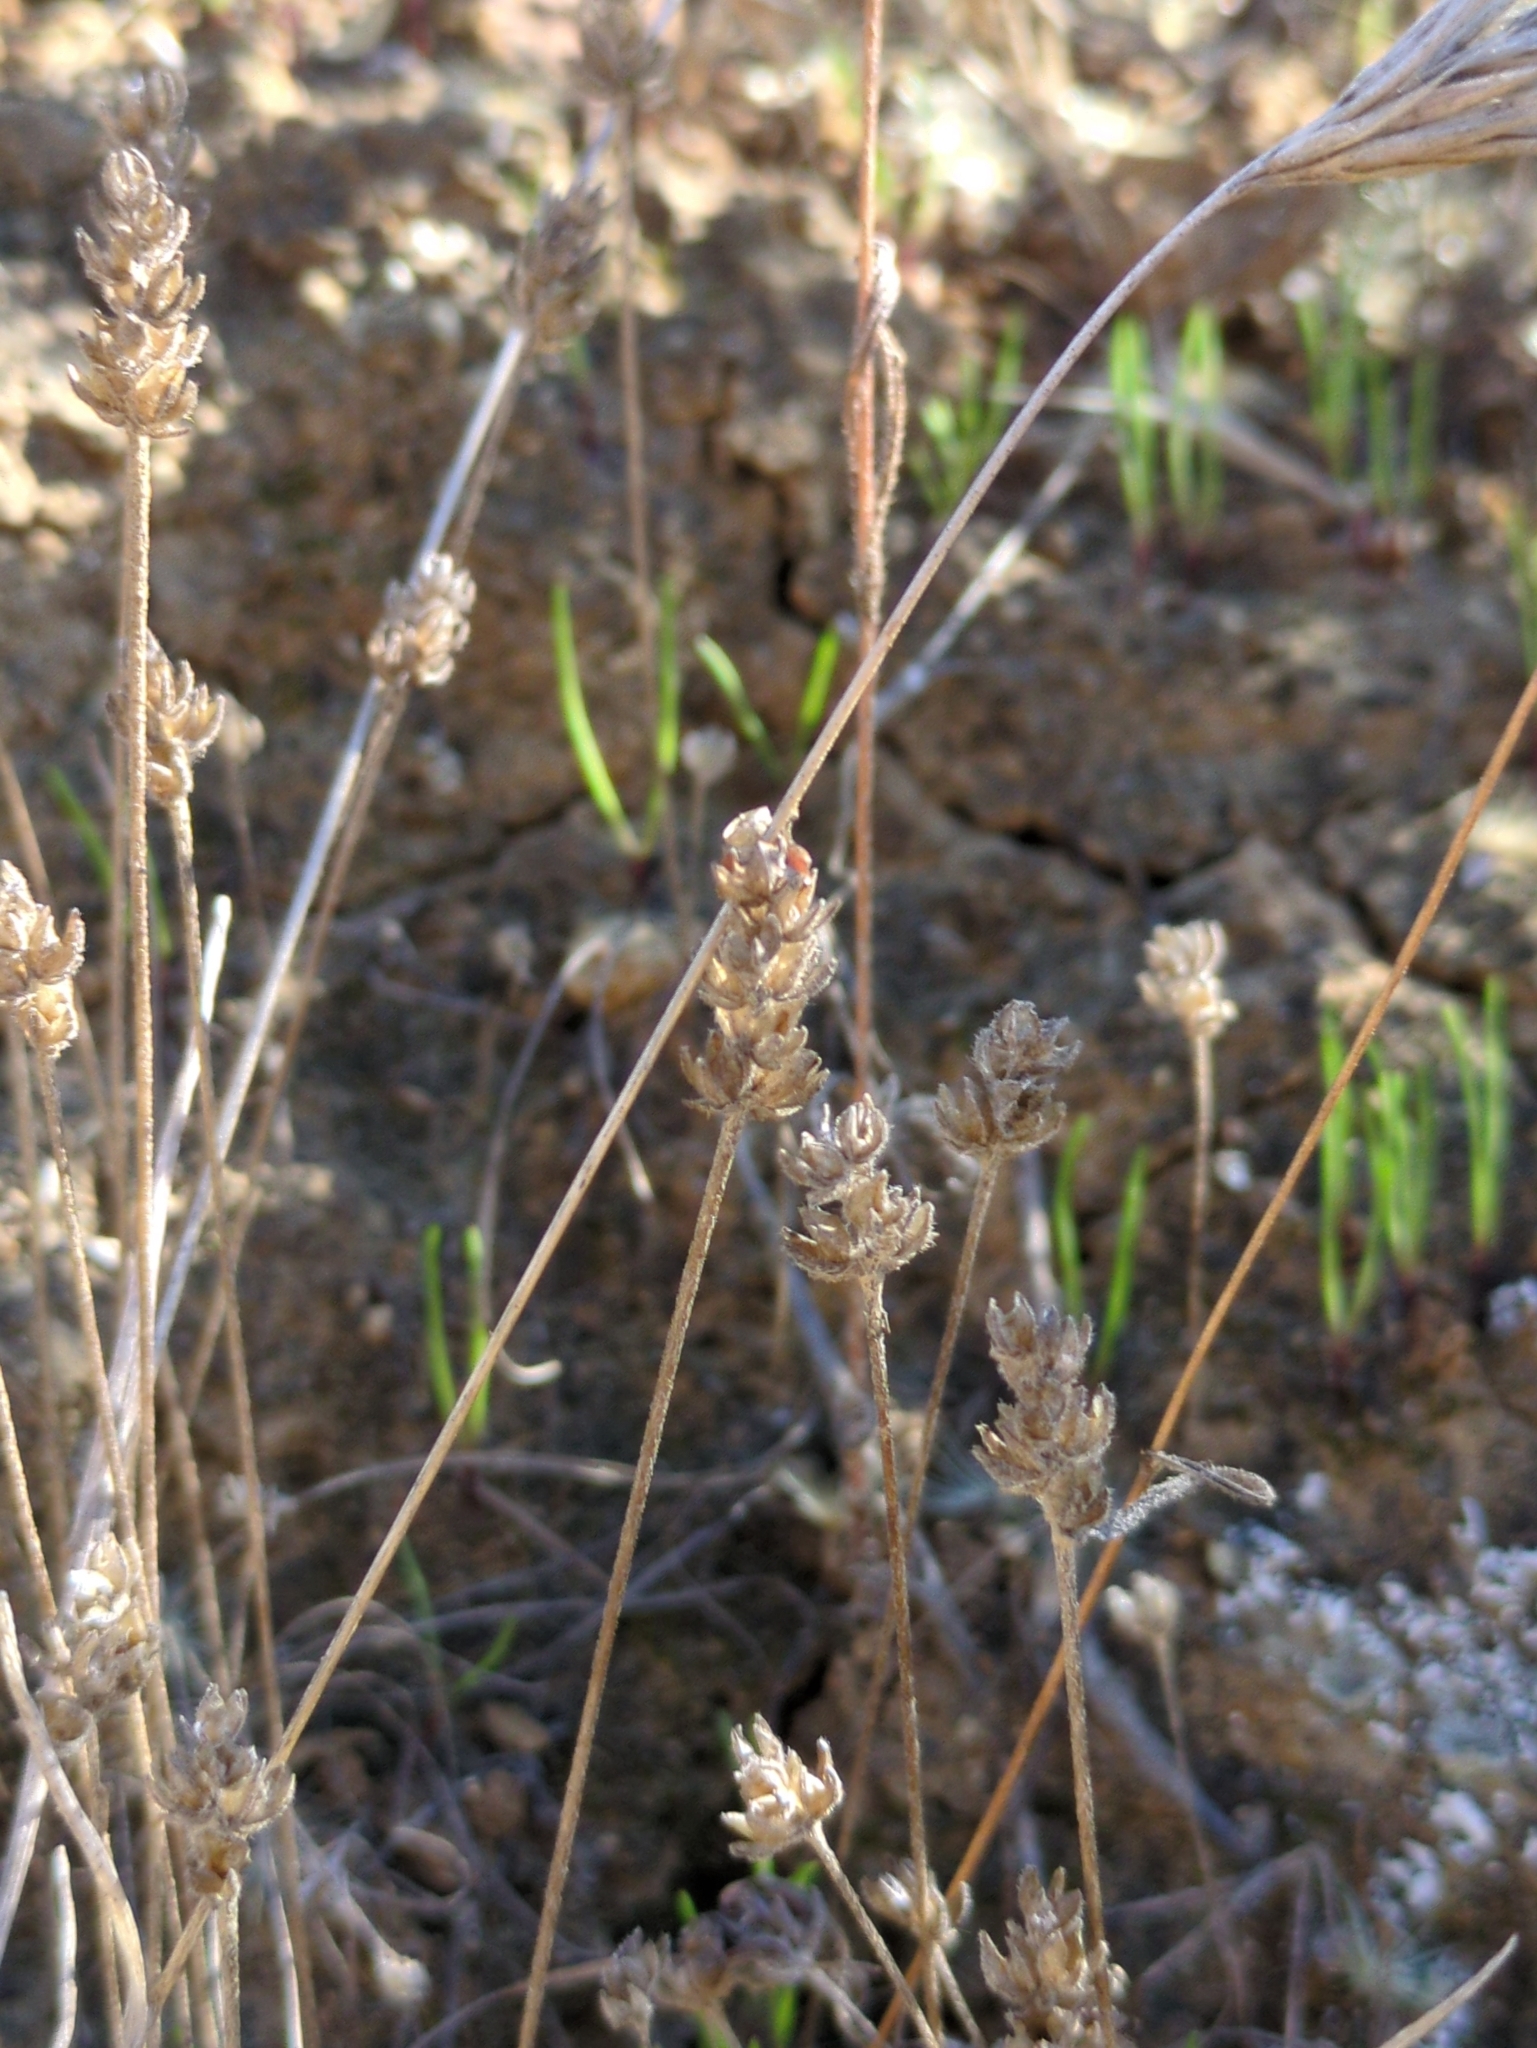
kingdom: Plantae
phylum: Tracheophyta
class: Magnoliopsida
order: Lamiales
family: Plantaginaceae
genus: Plantago
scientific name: Plantago erecta
